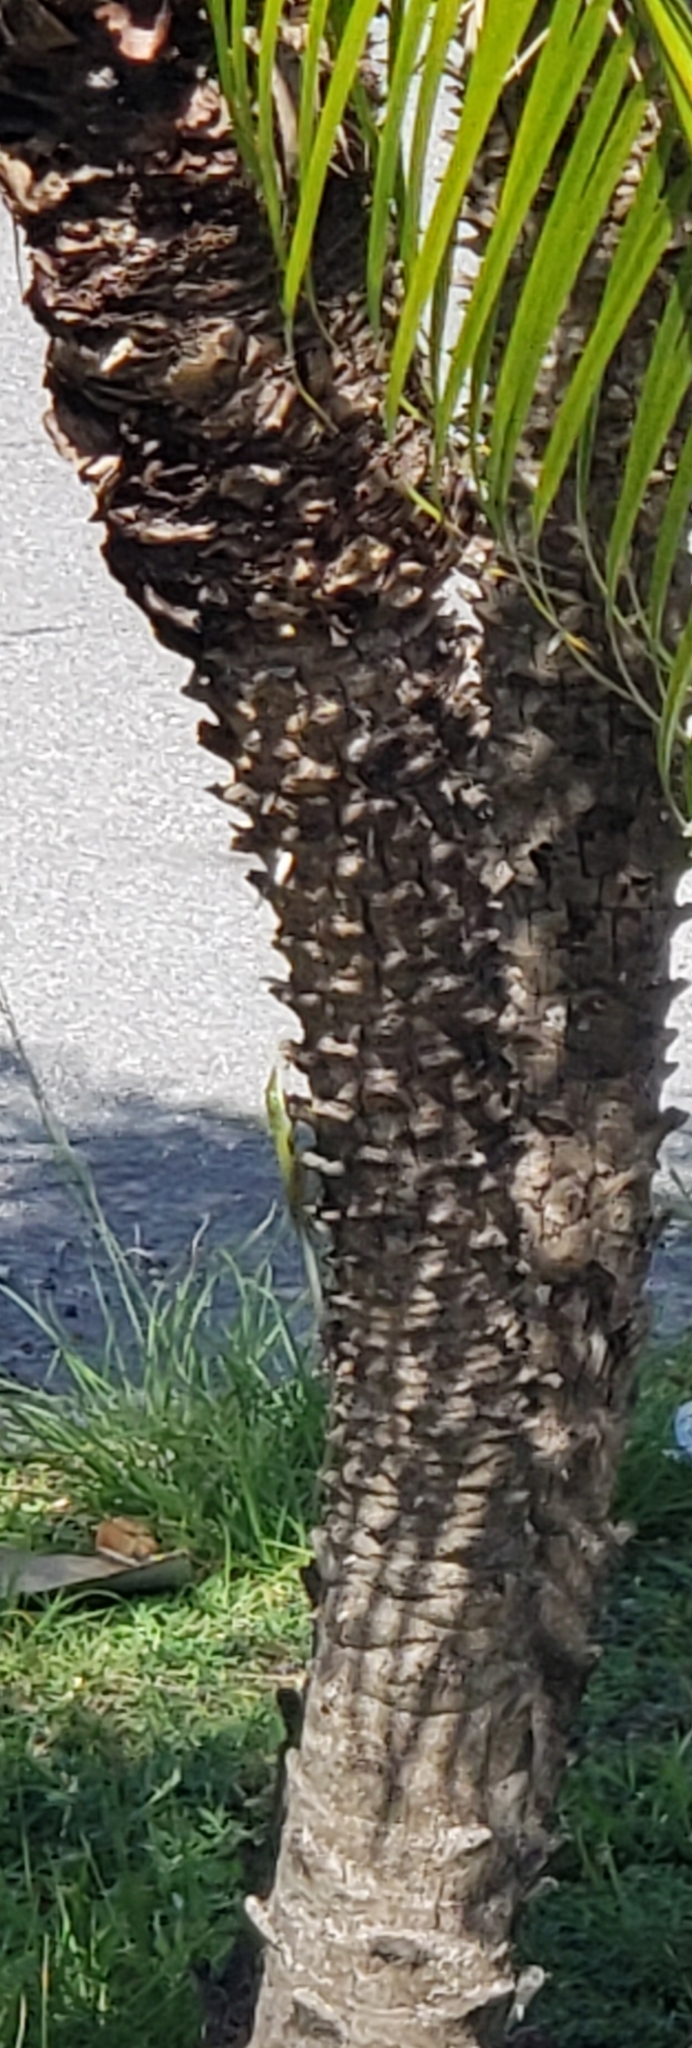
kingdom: Animalia
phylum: Chordata
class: Squamata
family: Dactyloidae
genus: Anolis
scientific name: Anolis carolinensis
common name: Green anole
